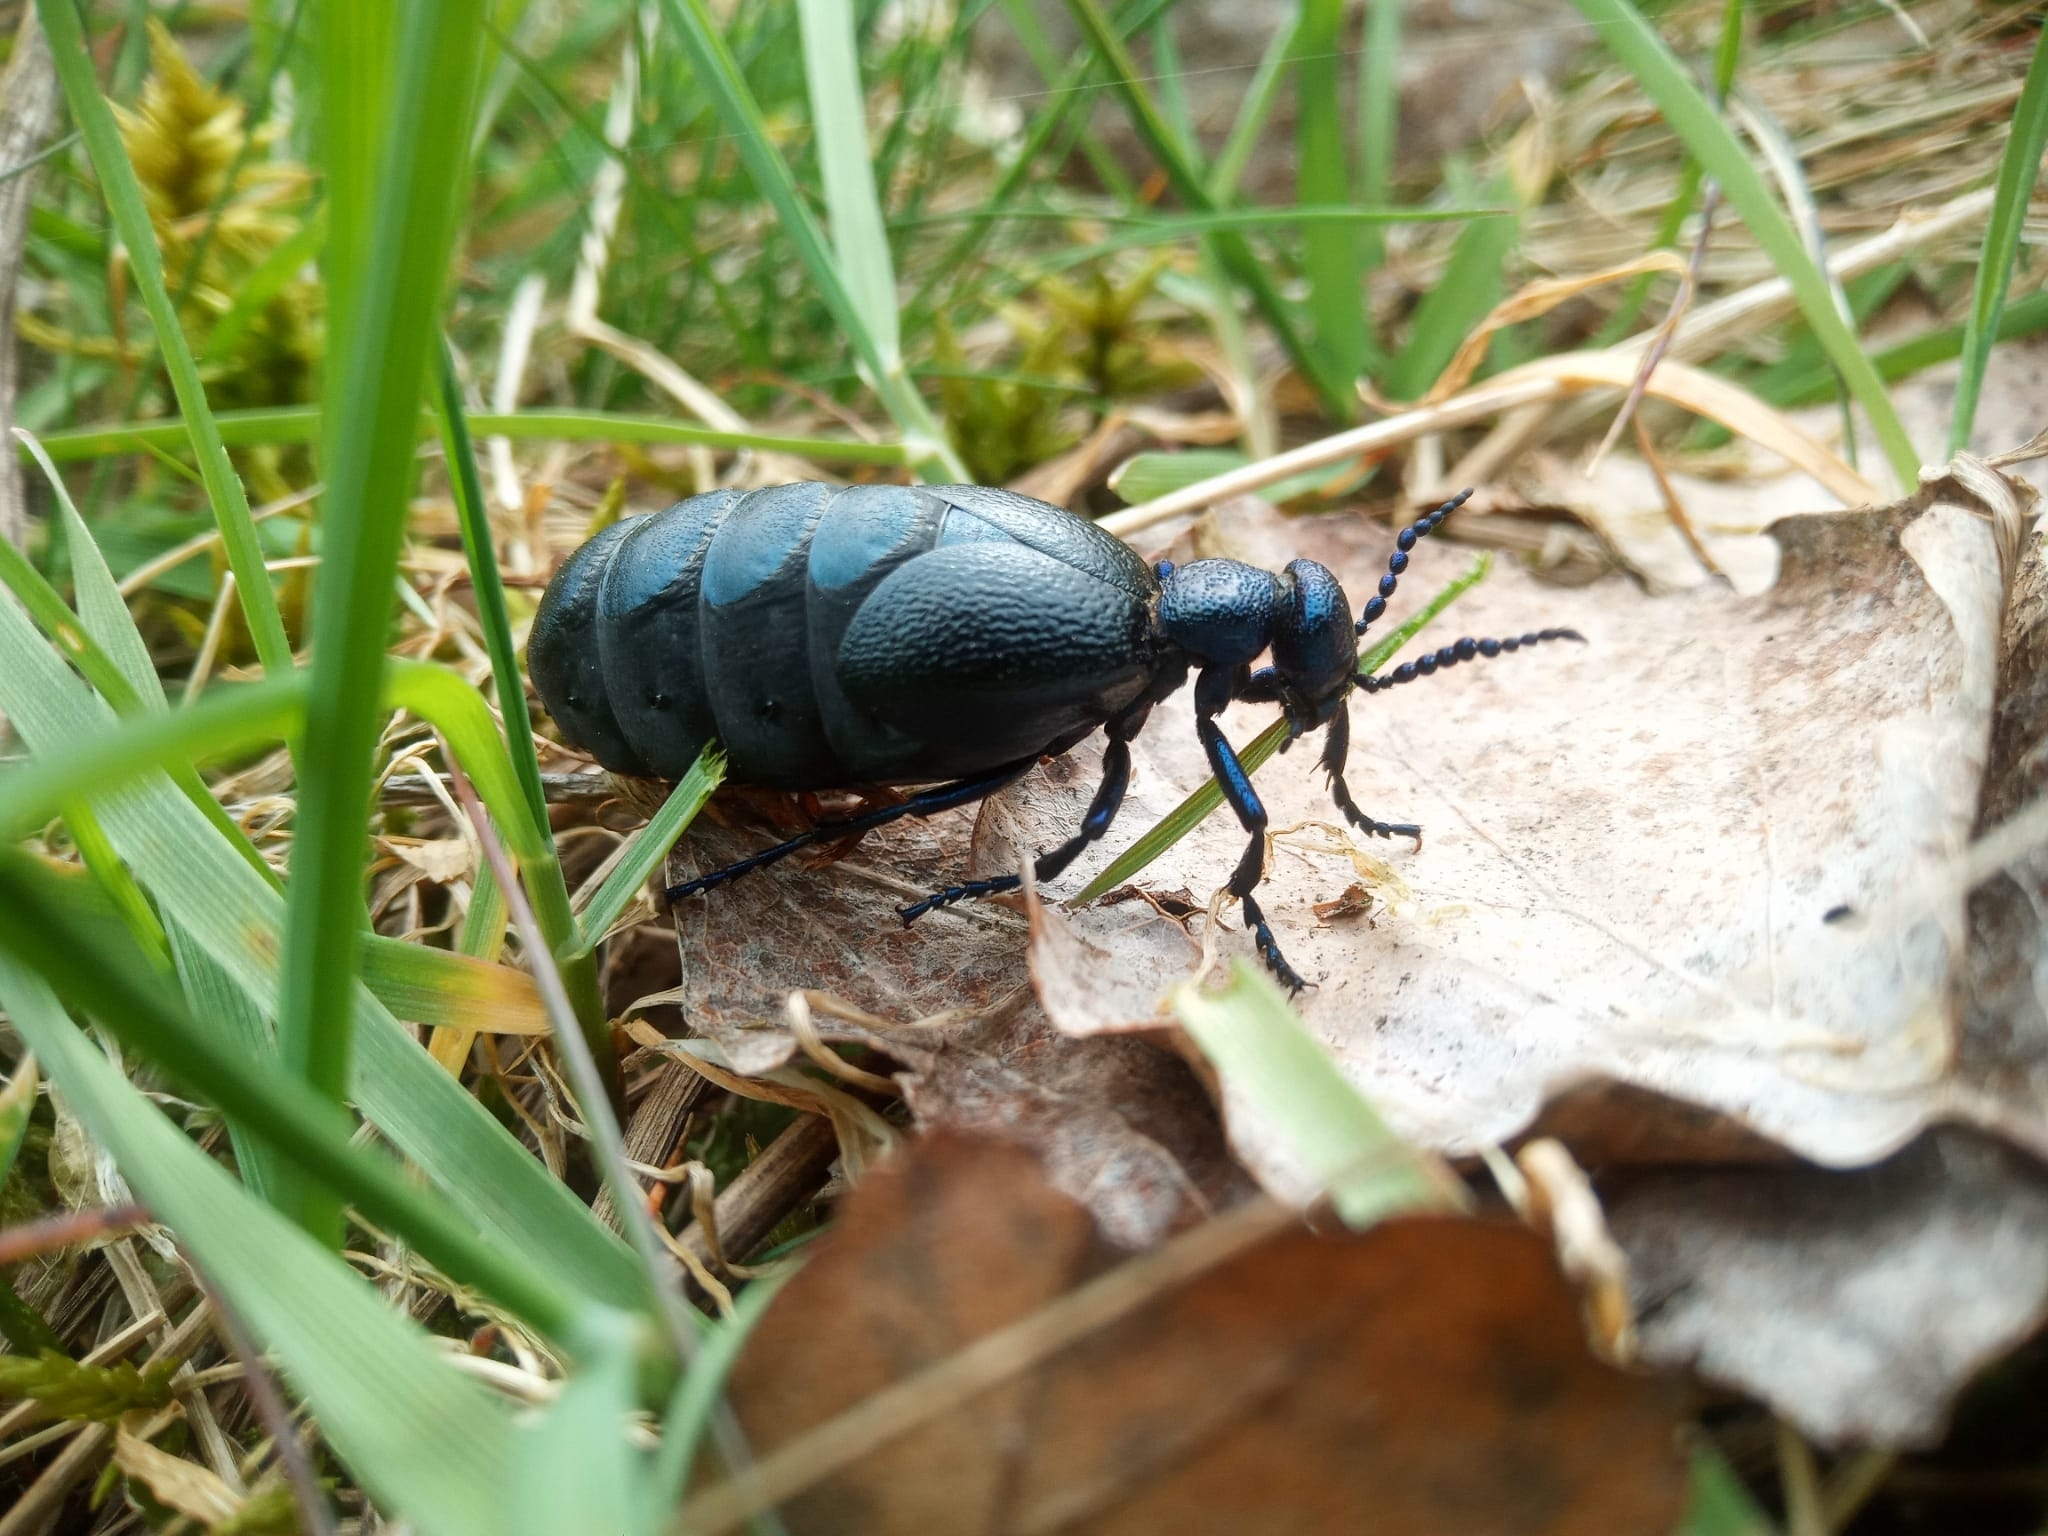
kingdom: Animalia
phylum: Arthropoda
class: Insecta
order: Coleoptera
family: Meloidae
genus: Meloe
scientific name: Meloe proscarabaeus
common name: Black oil-beetle
